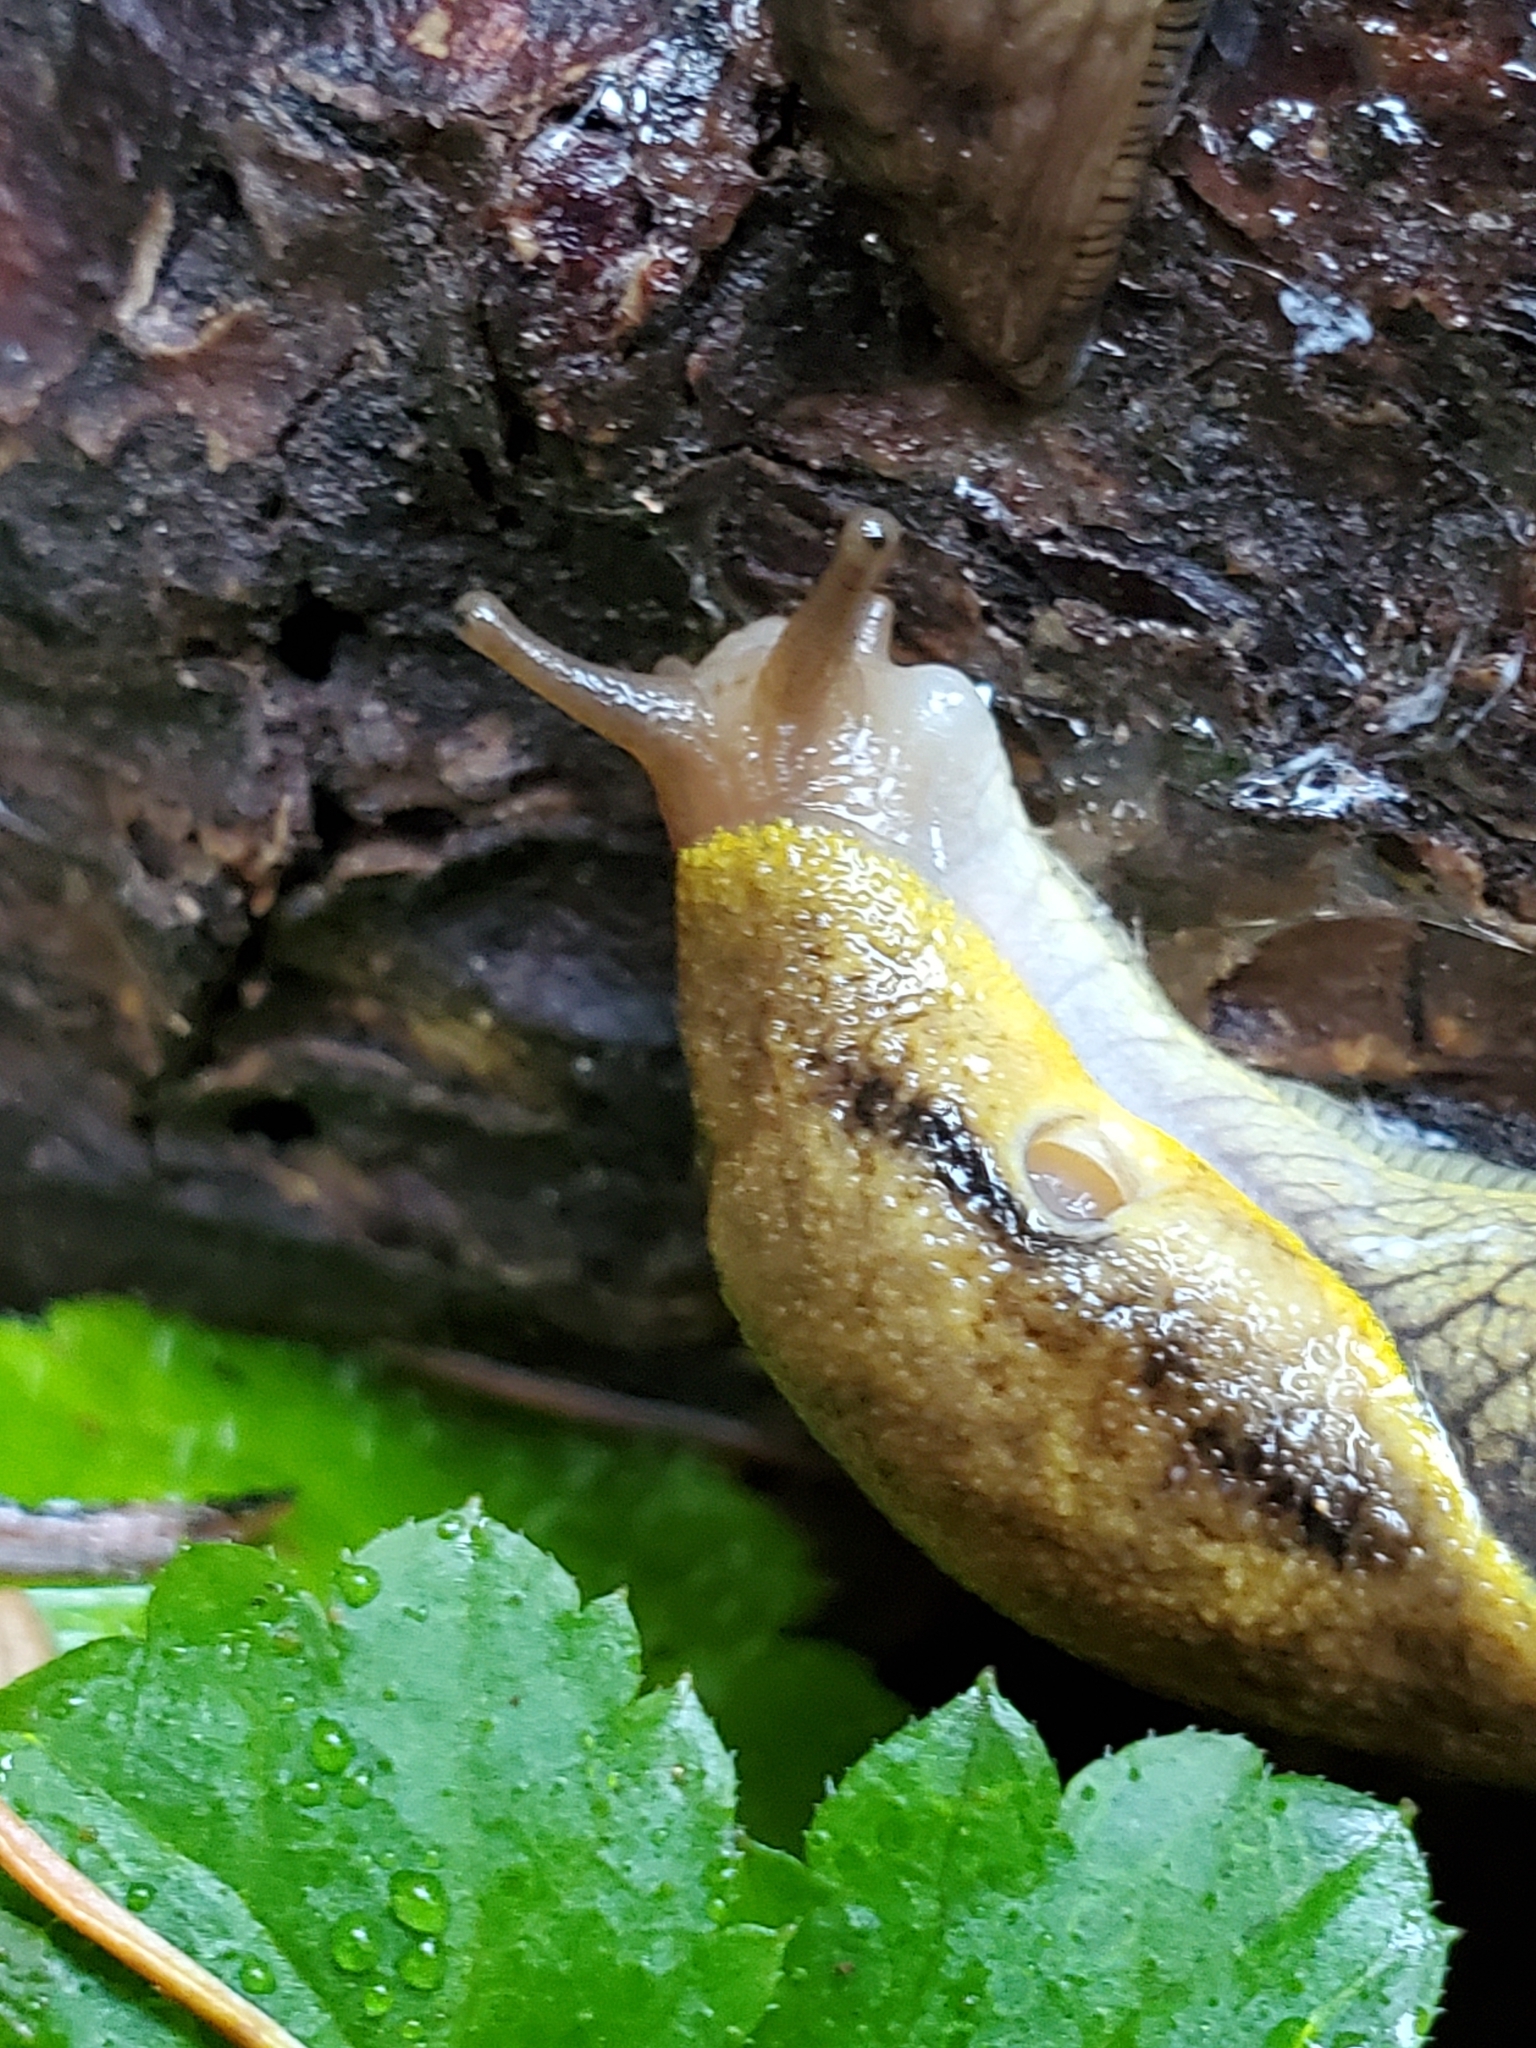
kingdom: Animalia
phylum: Mollusca
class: Gastropoda
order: Stylommatophora
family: Ariolimacidae
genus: Prophysaon
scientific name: Prophysaon foliolatum
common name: Yellow-bordered taildropper
